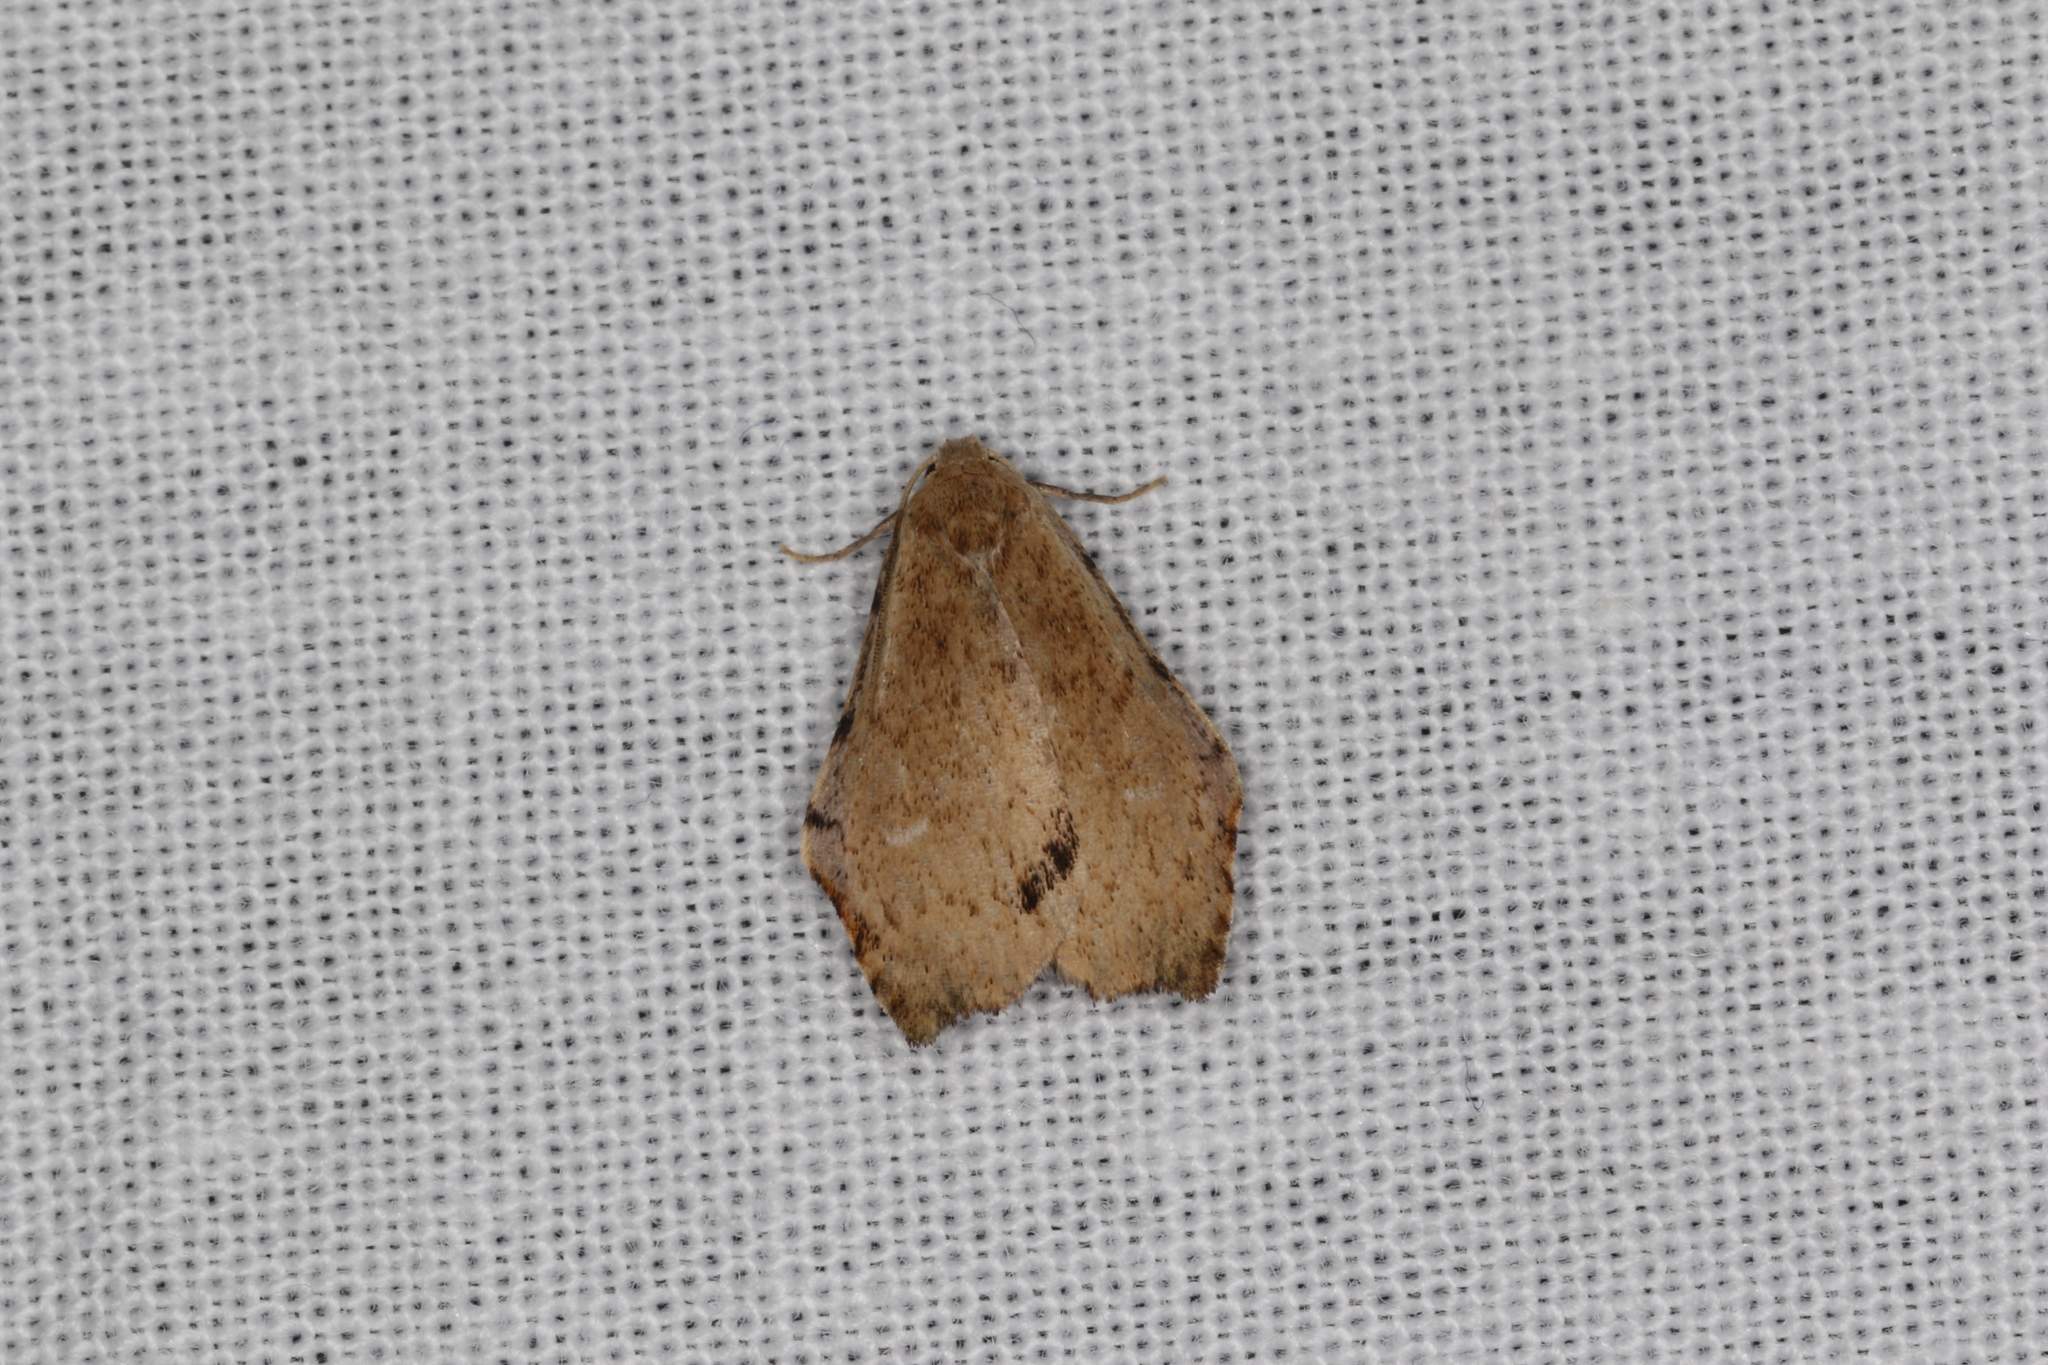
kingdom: Animalia
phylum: Arthropoda
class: Insecta
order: Lepidoptera
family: Erebidae
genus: Macaduma
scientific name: Macaduma toxophora
